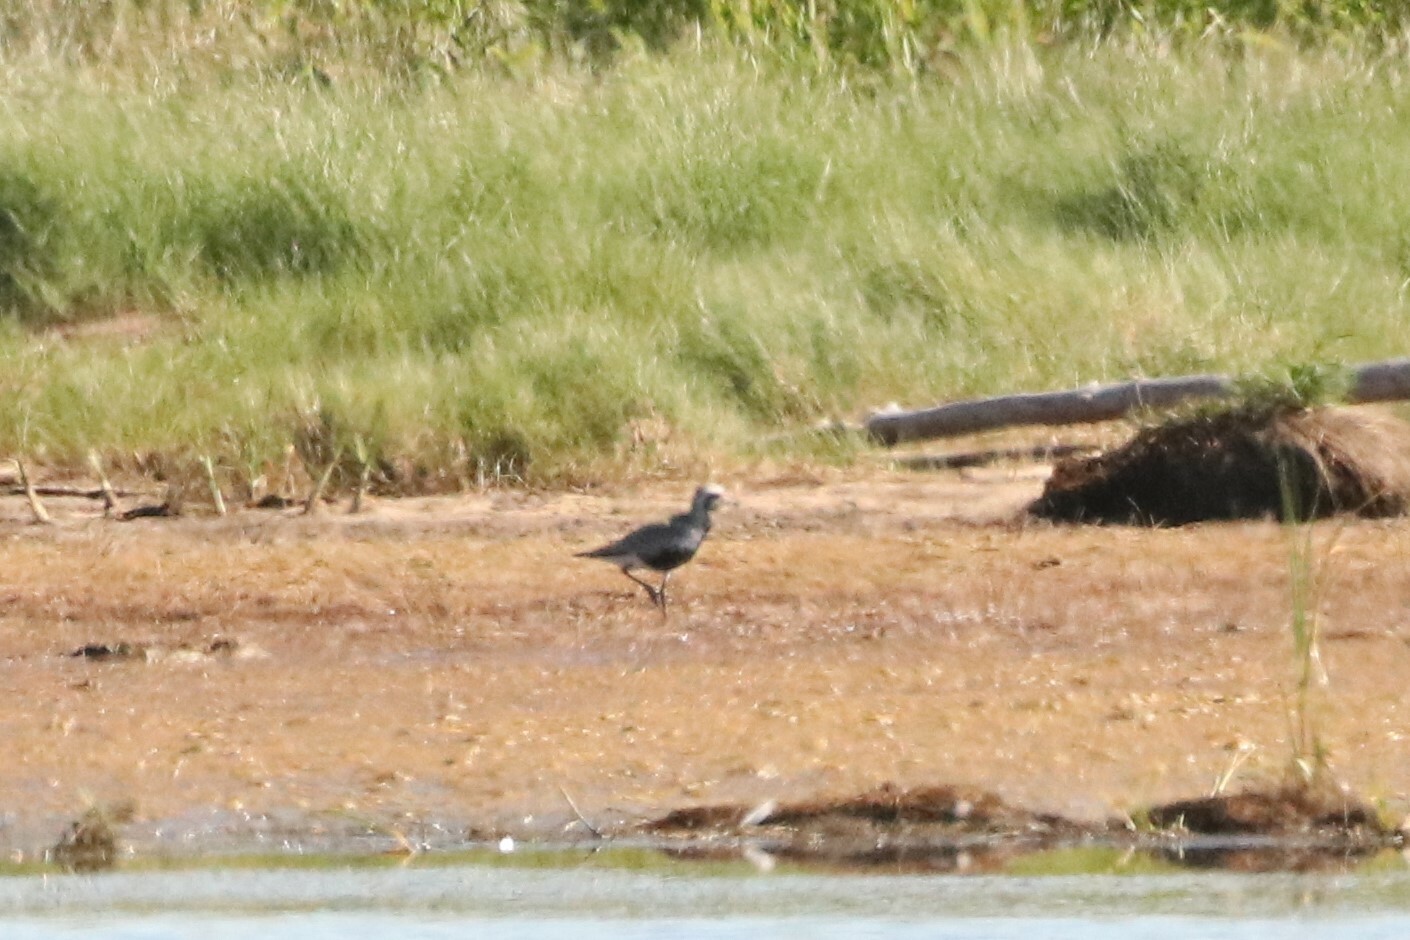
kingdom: Animalia
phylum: Chordata
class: Aves
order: Charadriiformes
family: Charadriidae
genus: Pluvialis
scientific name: Pluvialis squatarola
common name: Grey plover
